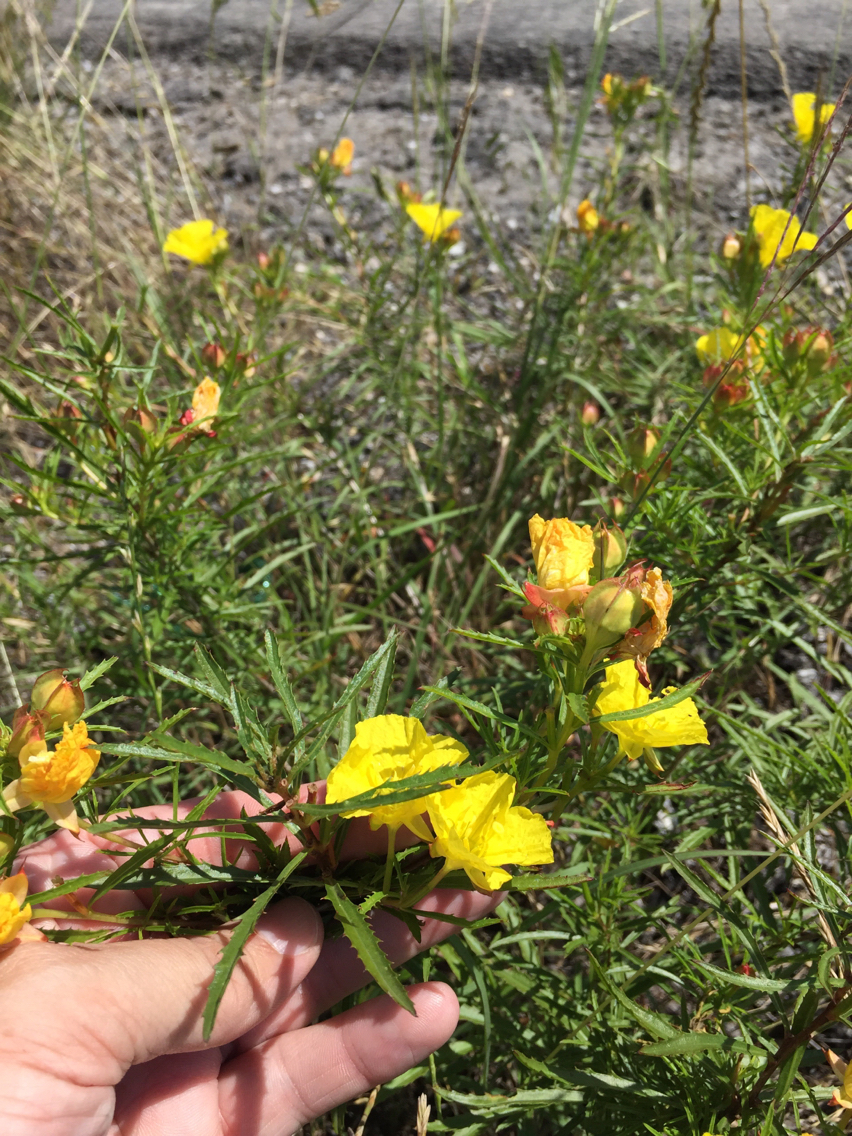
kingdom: Plantae
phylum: Tracheophyta
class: Magnoliopsida
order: Myrtales
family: Onagraceae
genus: Oenothera
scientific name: Oenothera
